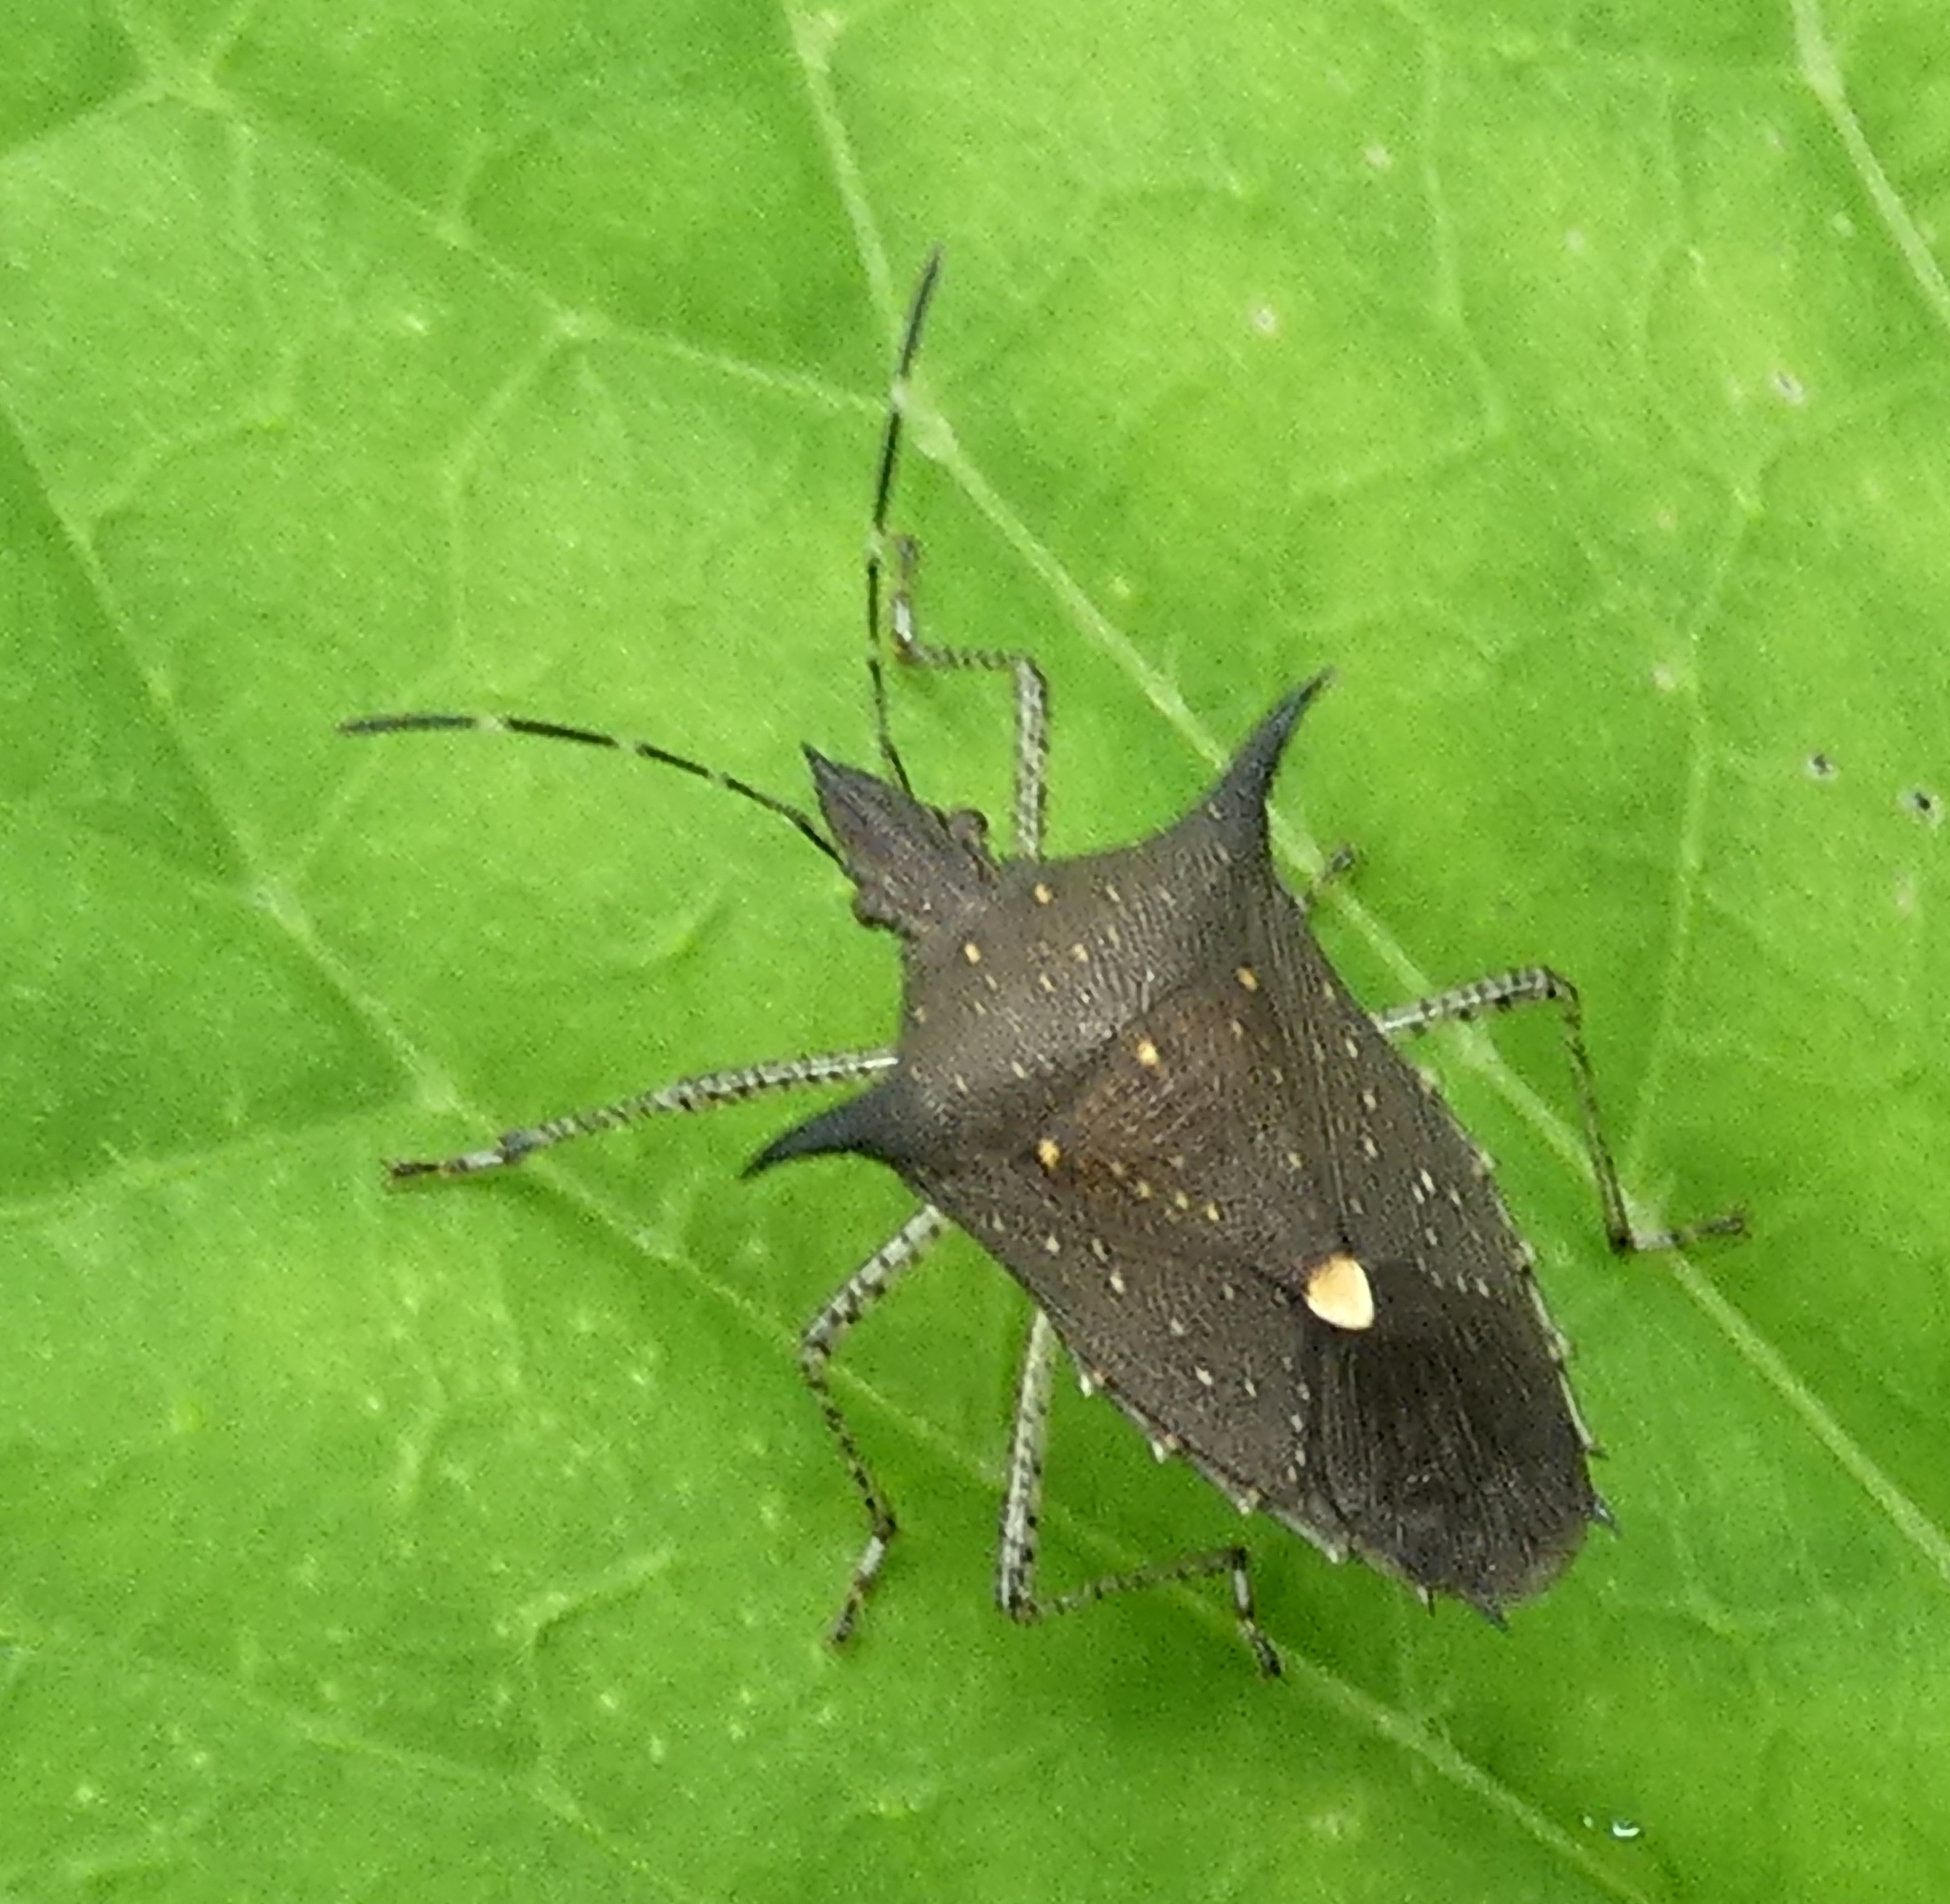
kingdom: Animalia
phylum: Arthropoda
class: Insecta
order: Hemiptera
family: Pentatomidae
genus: Proxys
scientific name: Proxys albopunctulatus
